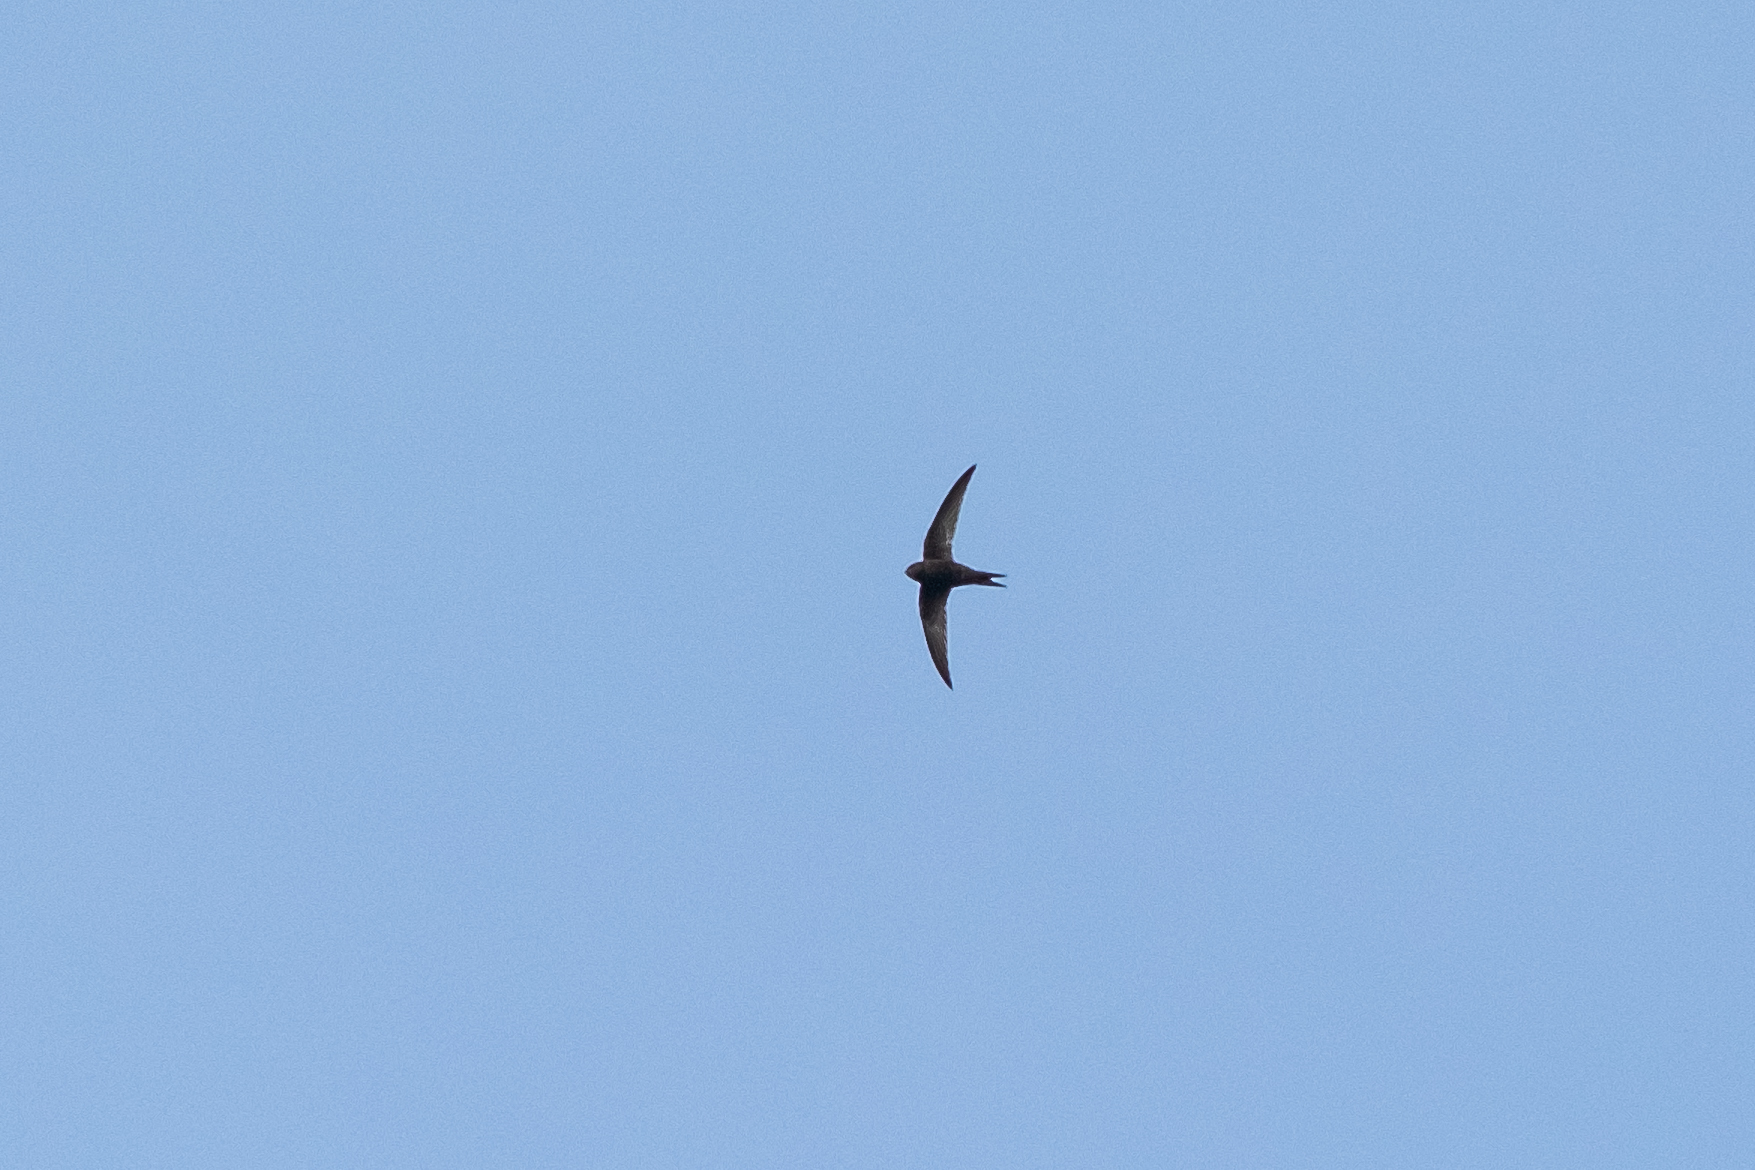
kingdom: Animalia
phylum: Chordata
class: Aves
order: Apodiformes
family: Apodidae
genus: Apus
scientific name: Apus apus
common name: Common swift
